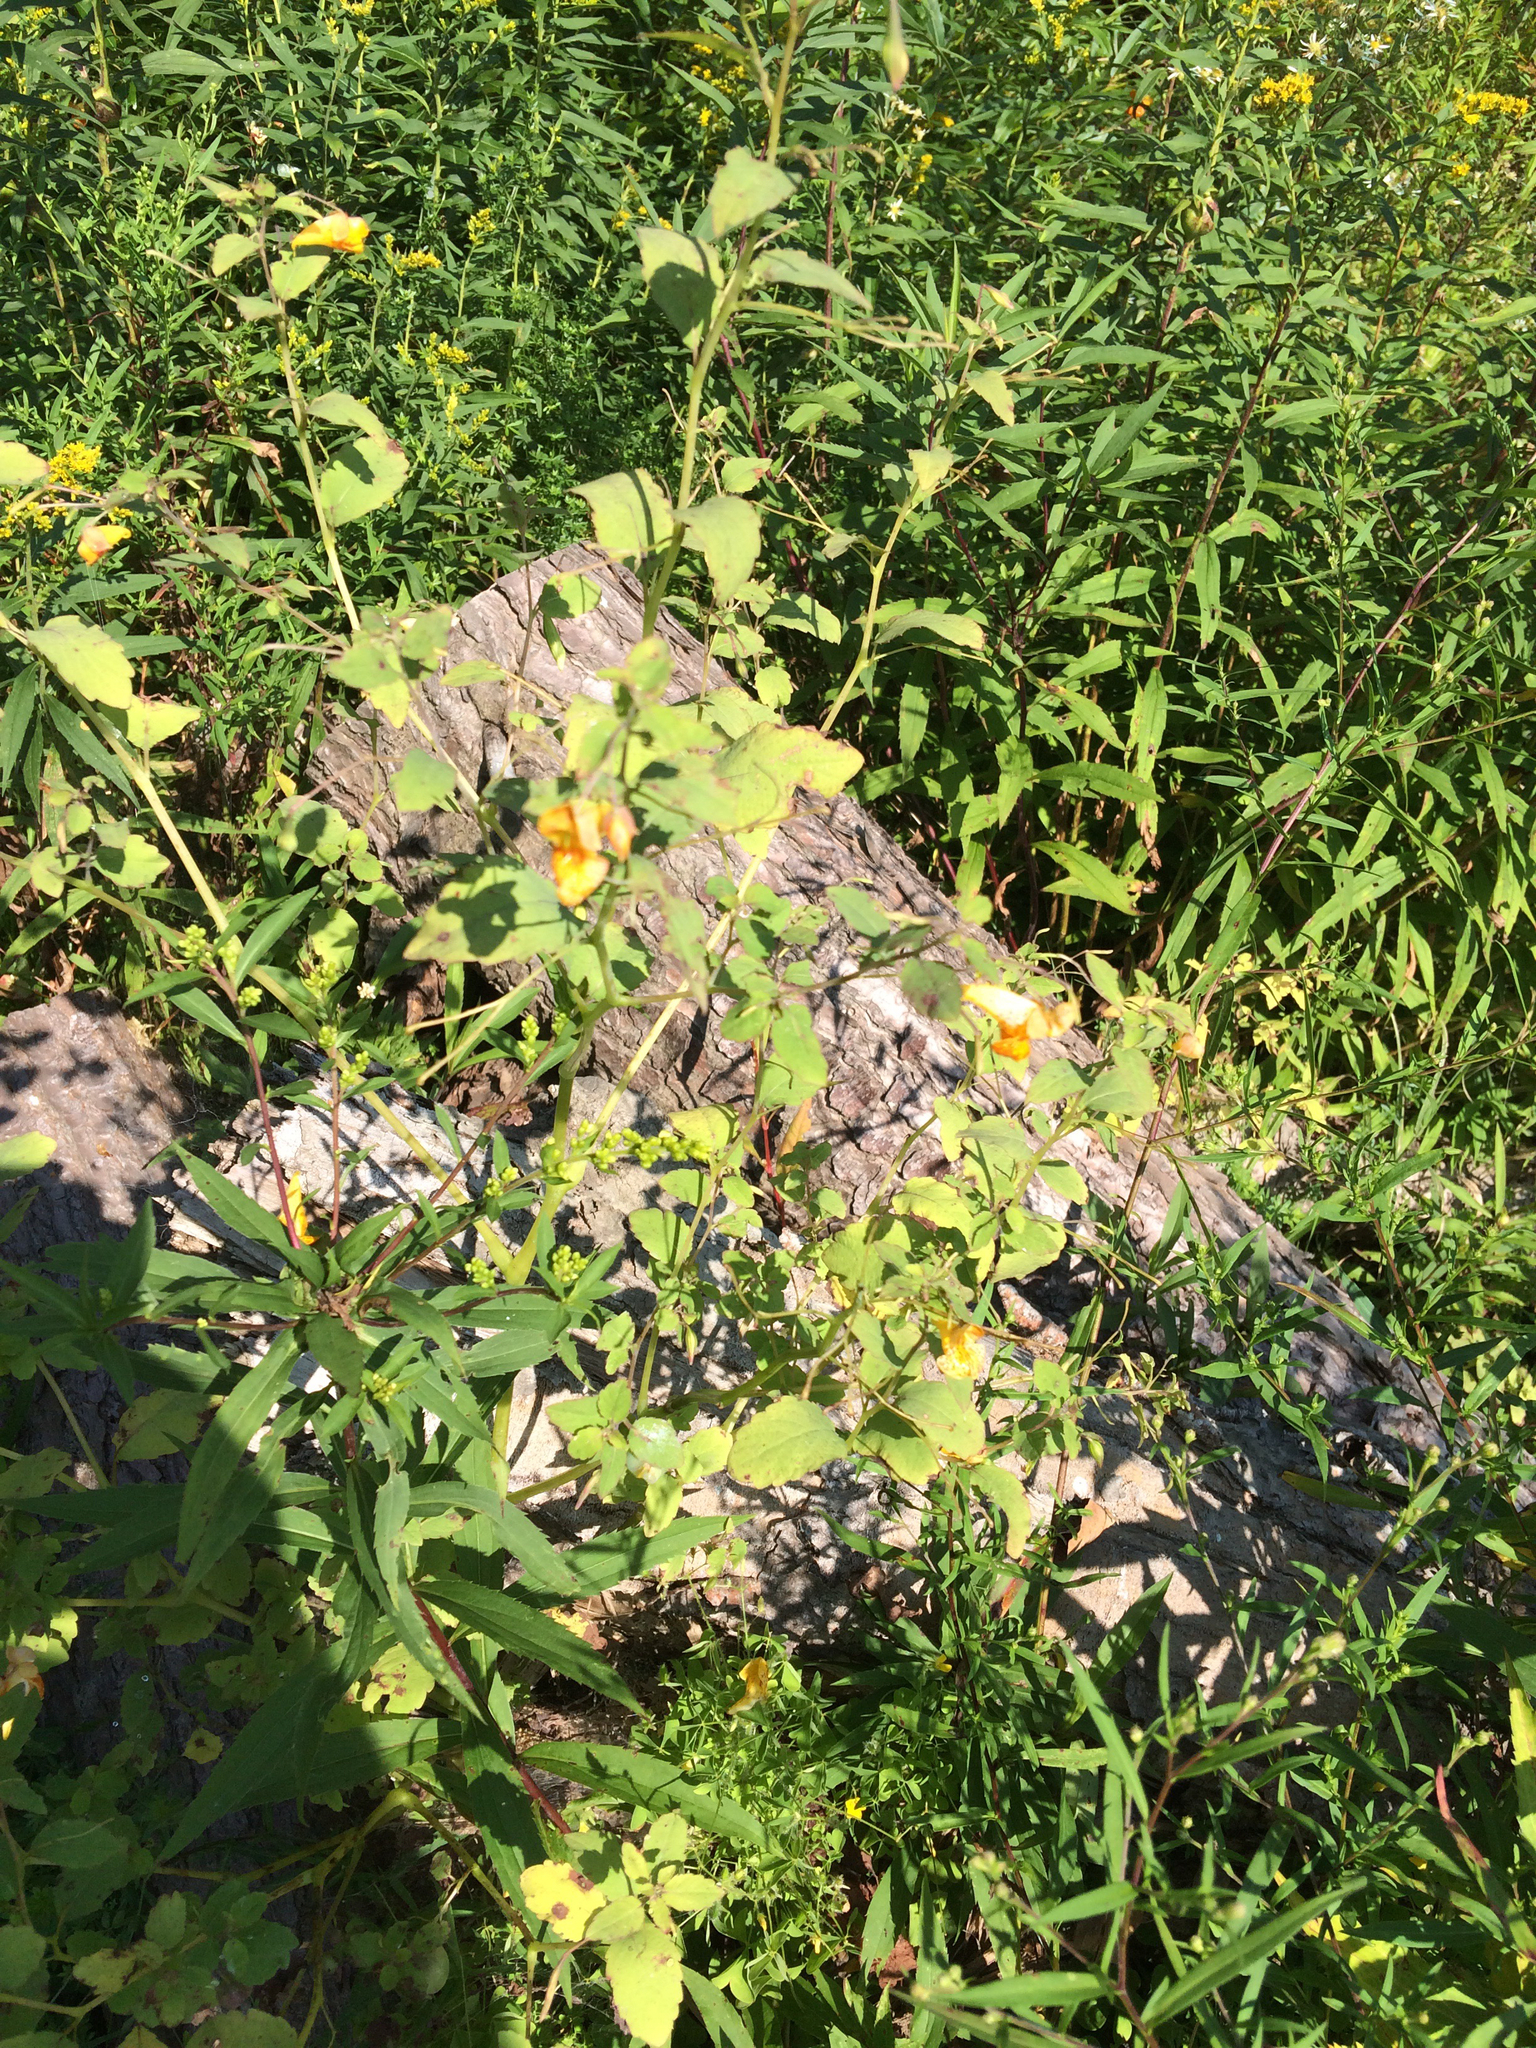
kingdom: Plantae
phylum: Tracheophyta
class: Magnoliopsida
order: Ericales
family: Balsaminaceae
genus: Impatiens
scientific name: Impatiens capensis
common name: Orange balsam
